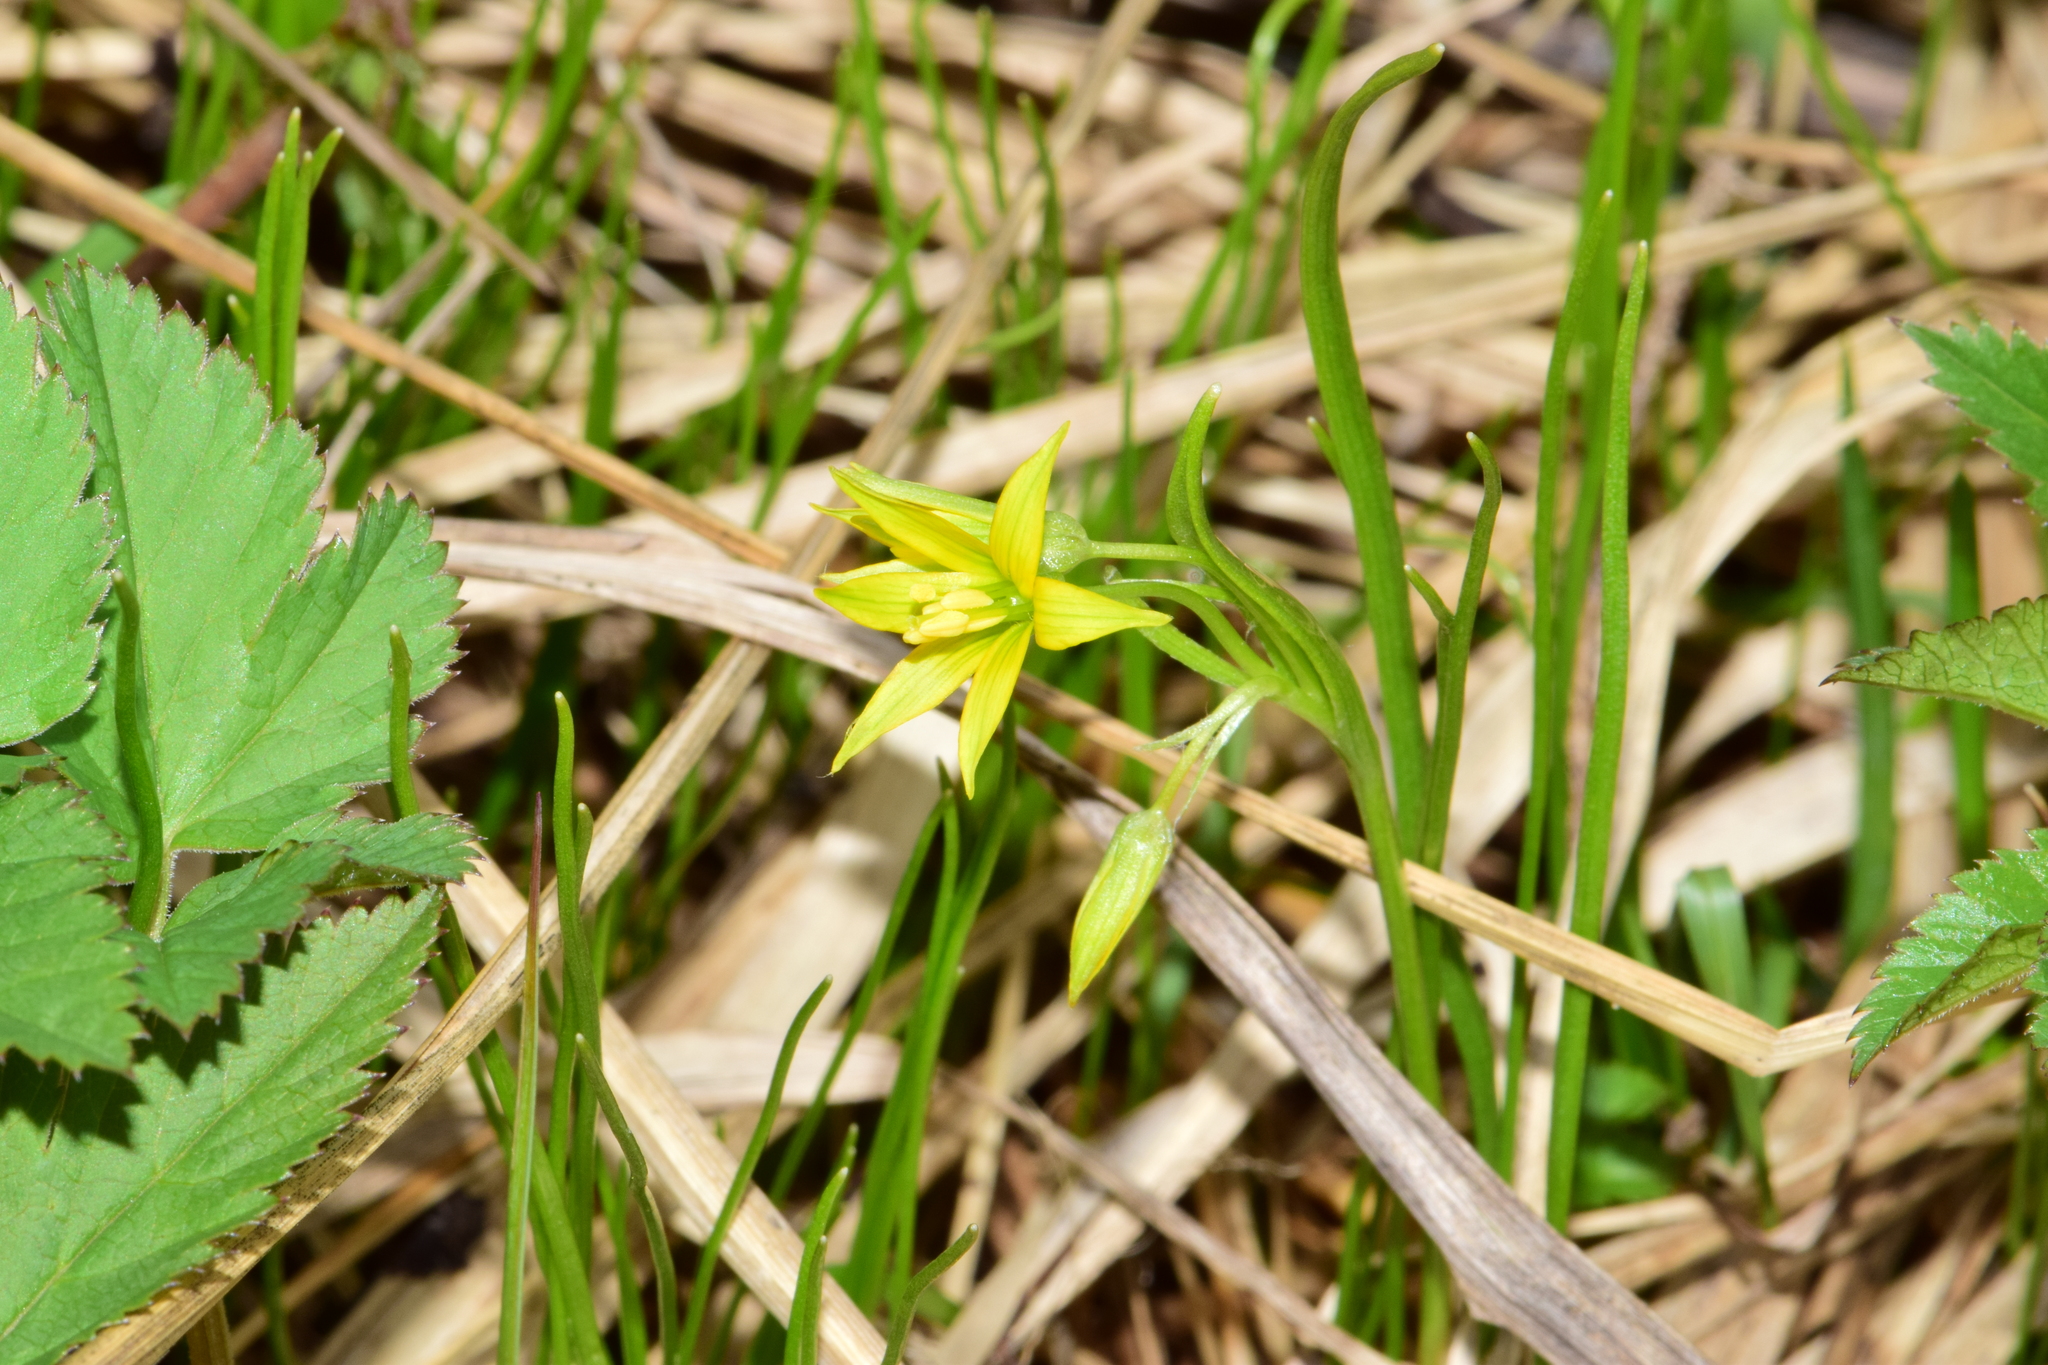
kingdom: Plantae
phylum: Tracheophyta
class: Liliopsida
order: Liliales
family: Liliaceae
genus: Gagea
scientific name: Gagea minima
